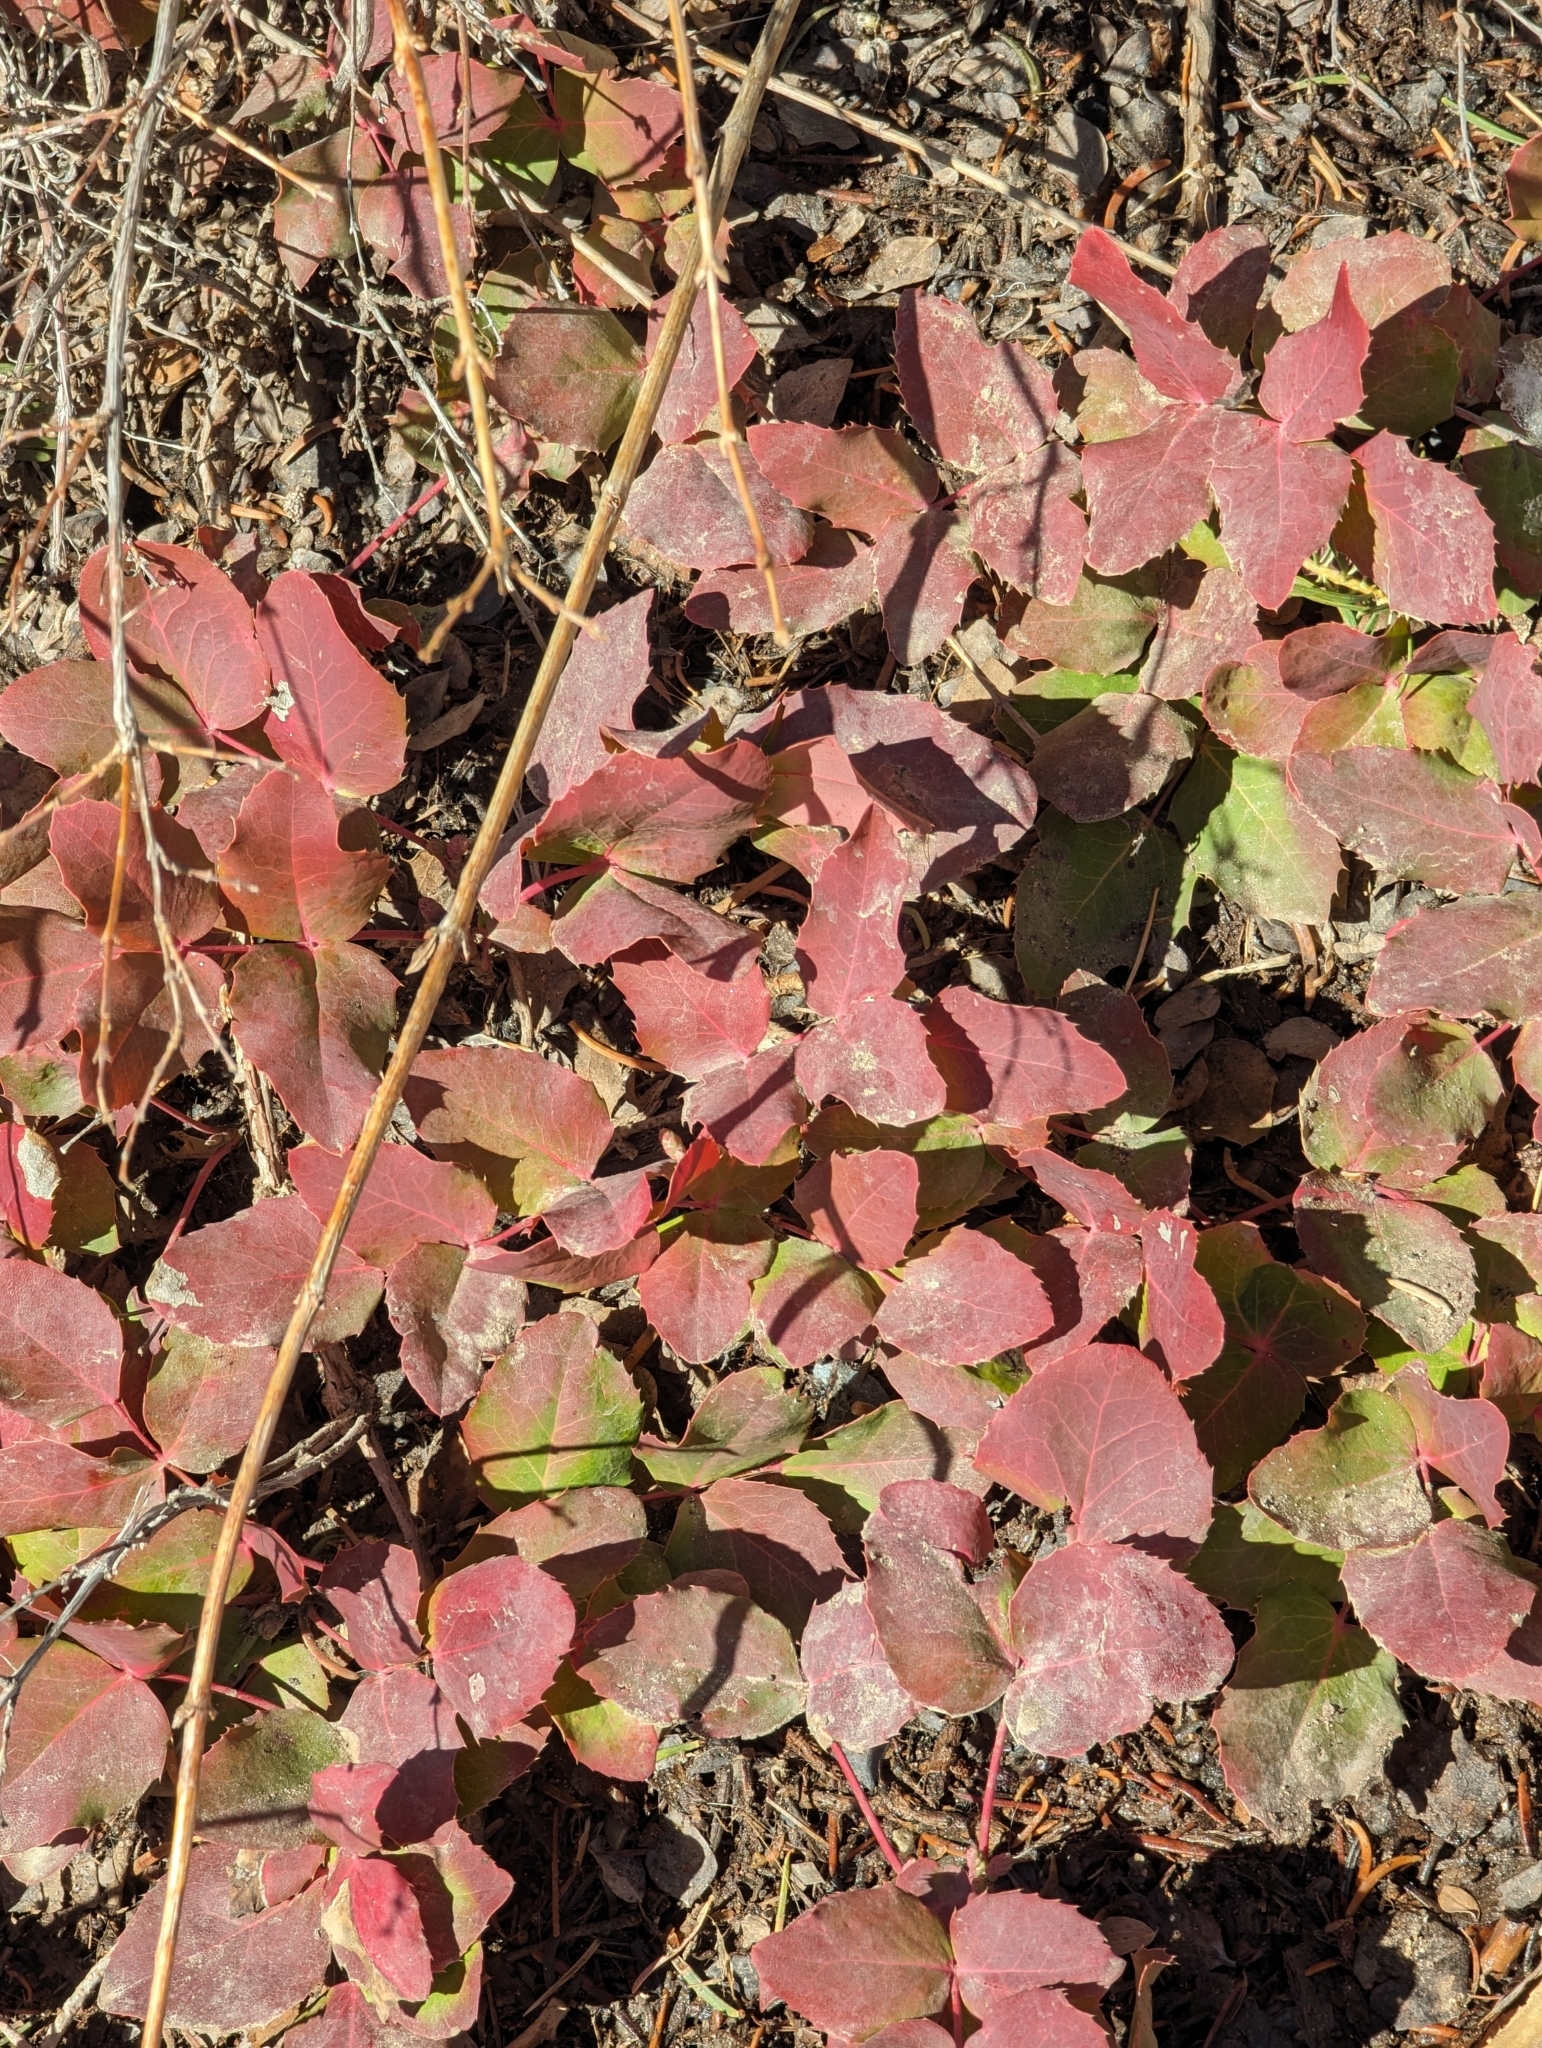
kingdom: Plantae
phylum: Tracheophyta
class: Magnoliopsida
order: Ranunculales
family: Berberidaceae
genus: Mahonia
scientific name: Mahonia repens
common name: Creeping oregon-grape
